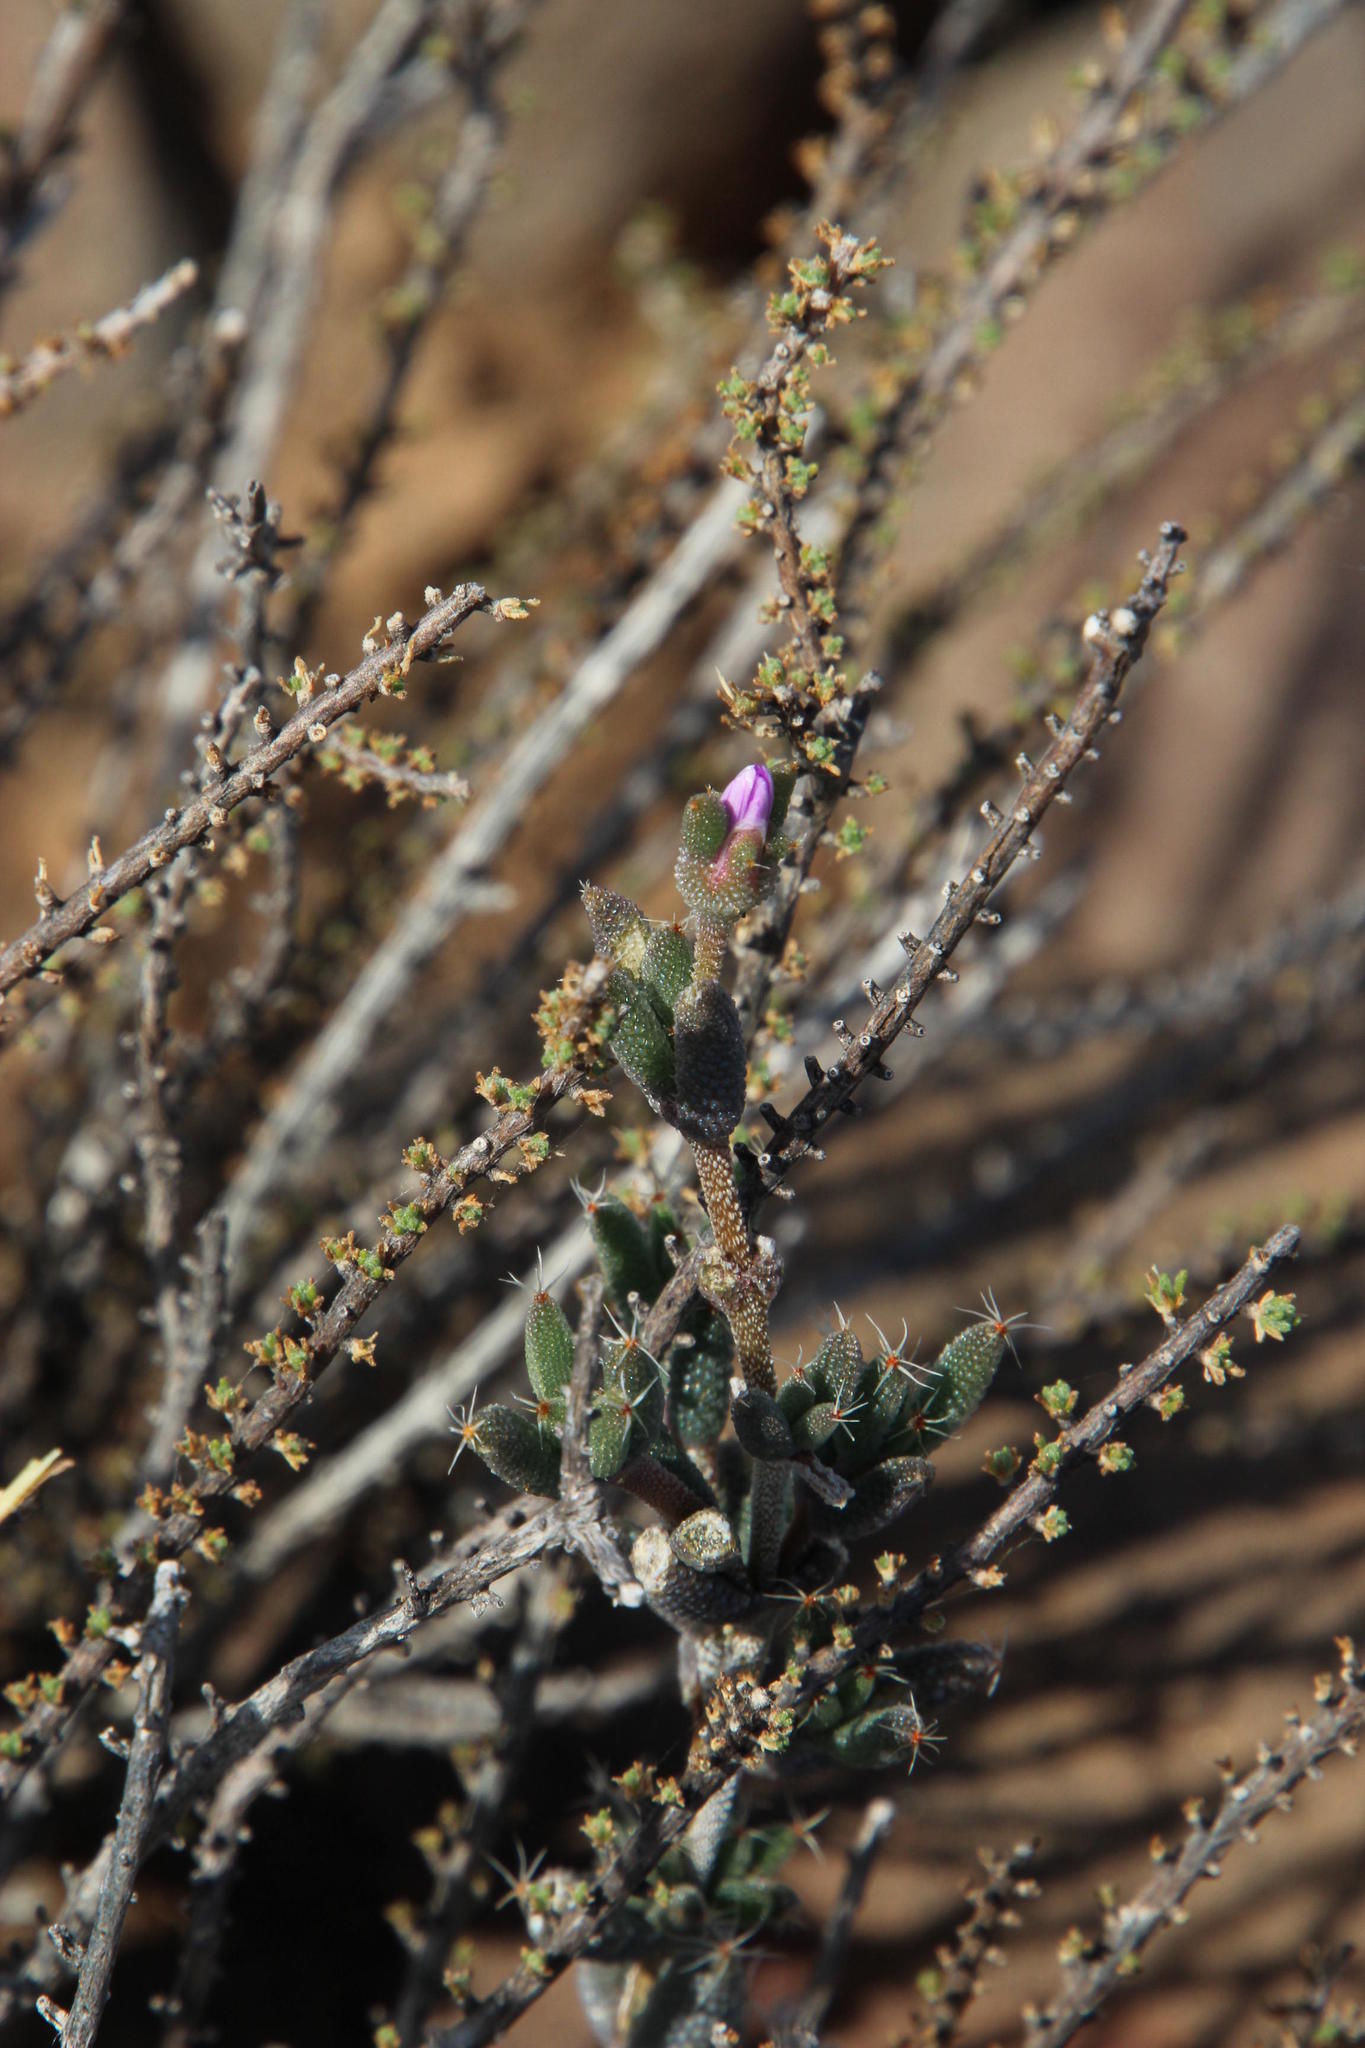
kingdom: Plantae
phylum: Tracheophyta
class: Magnoliopsida
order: Caryophyllales
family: Aizoaceae
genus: Trichodiadema
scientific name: Trichodiadema pomeridianum
